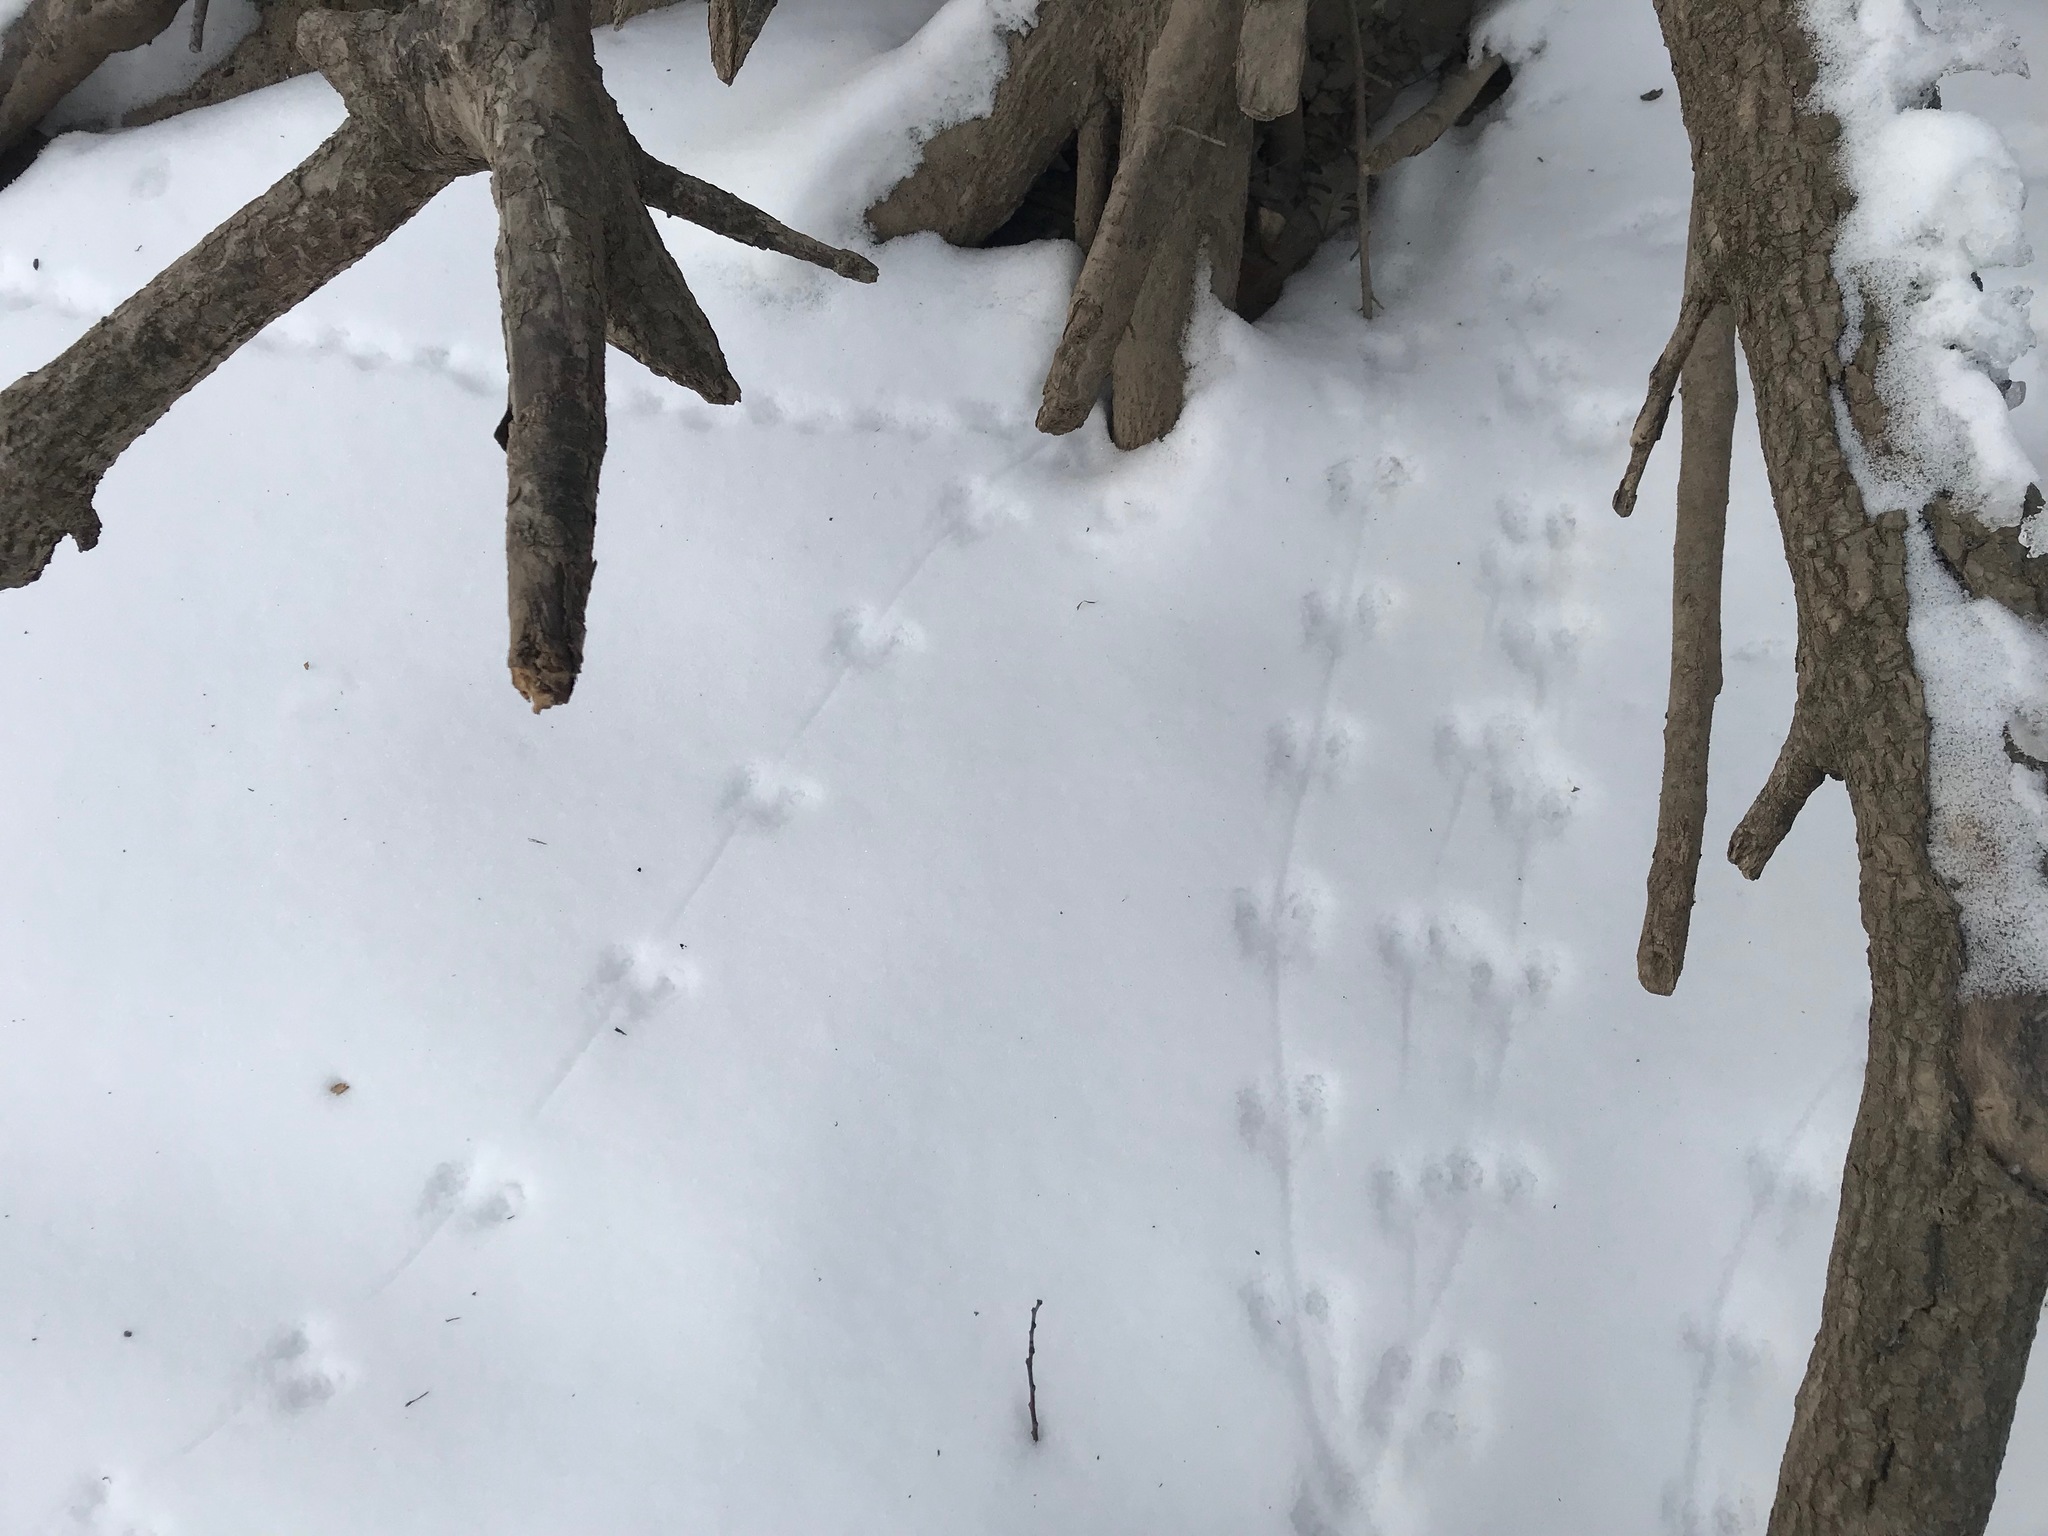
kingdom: Animalia
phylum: Chordata
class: Mammalia
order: Rodentia
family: Cricetidae
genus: Peromyscus
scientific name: Peromyscus
